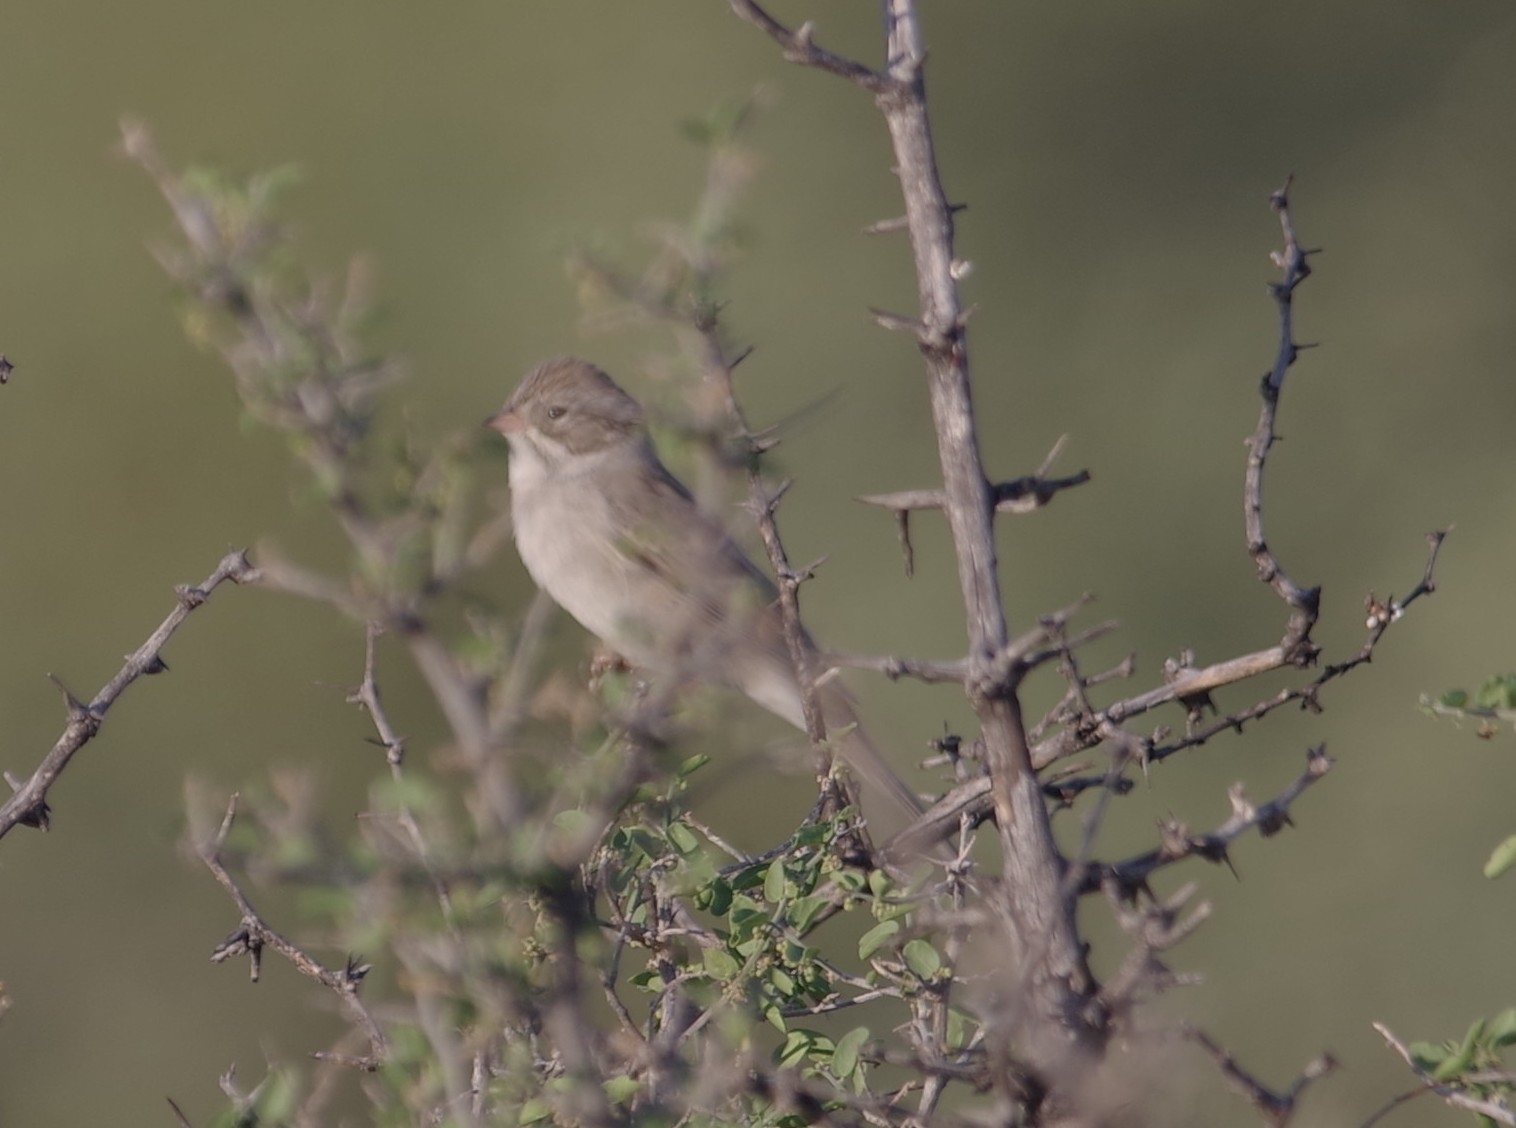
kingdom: Animalia
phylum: Chordata
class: Aves
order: Passeriformes
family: Passerellidae
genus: Spizella
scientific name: Spizella breweri
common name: Brewer's sparrow
